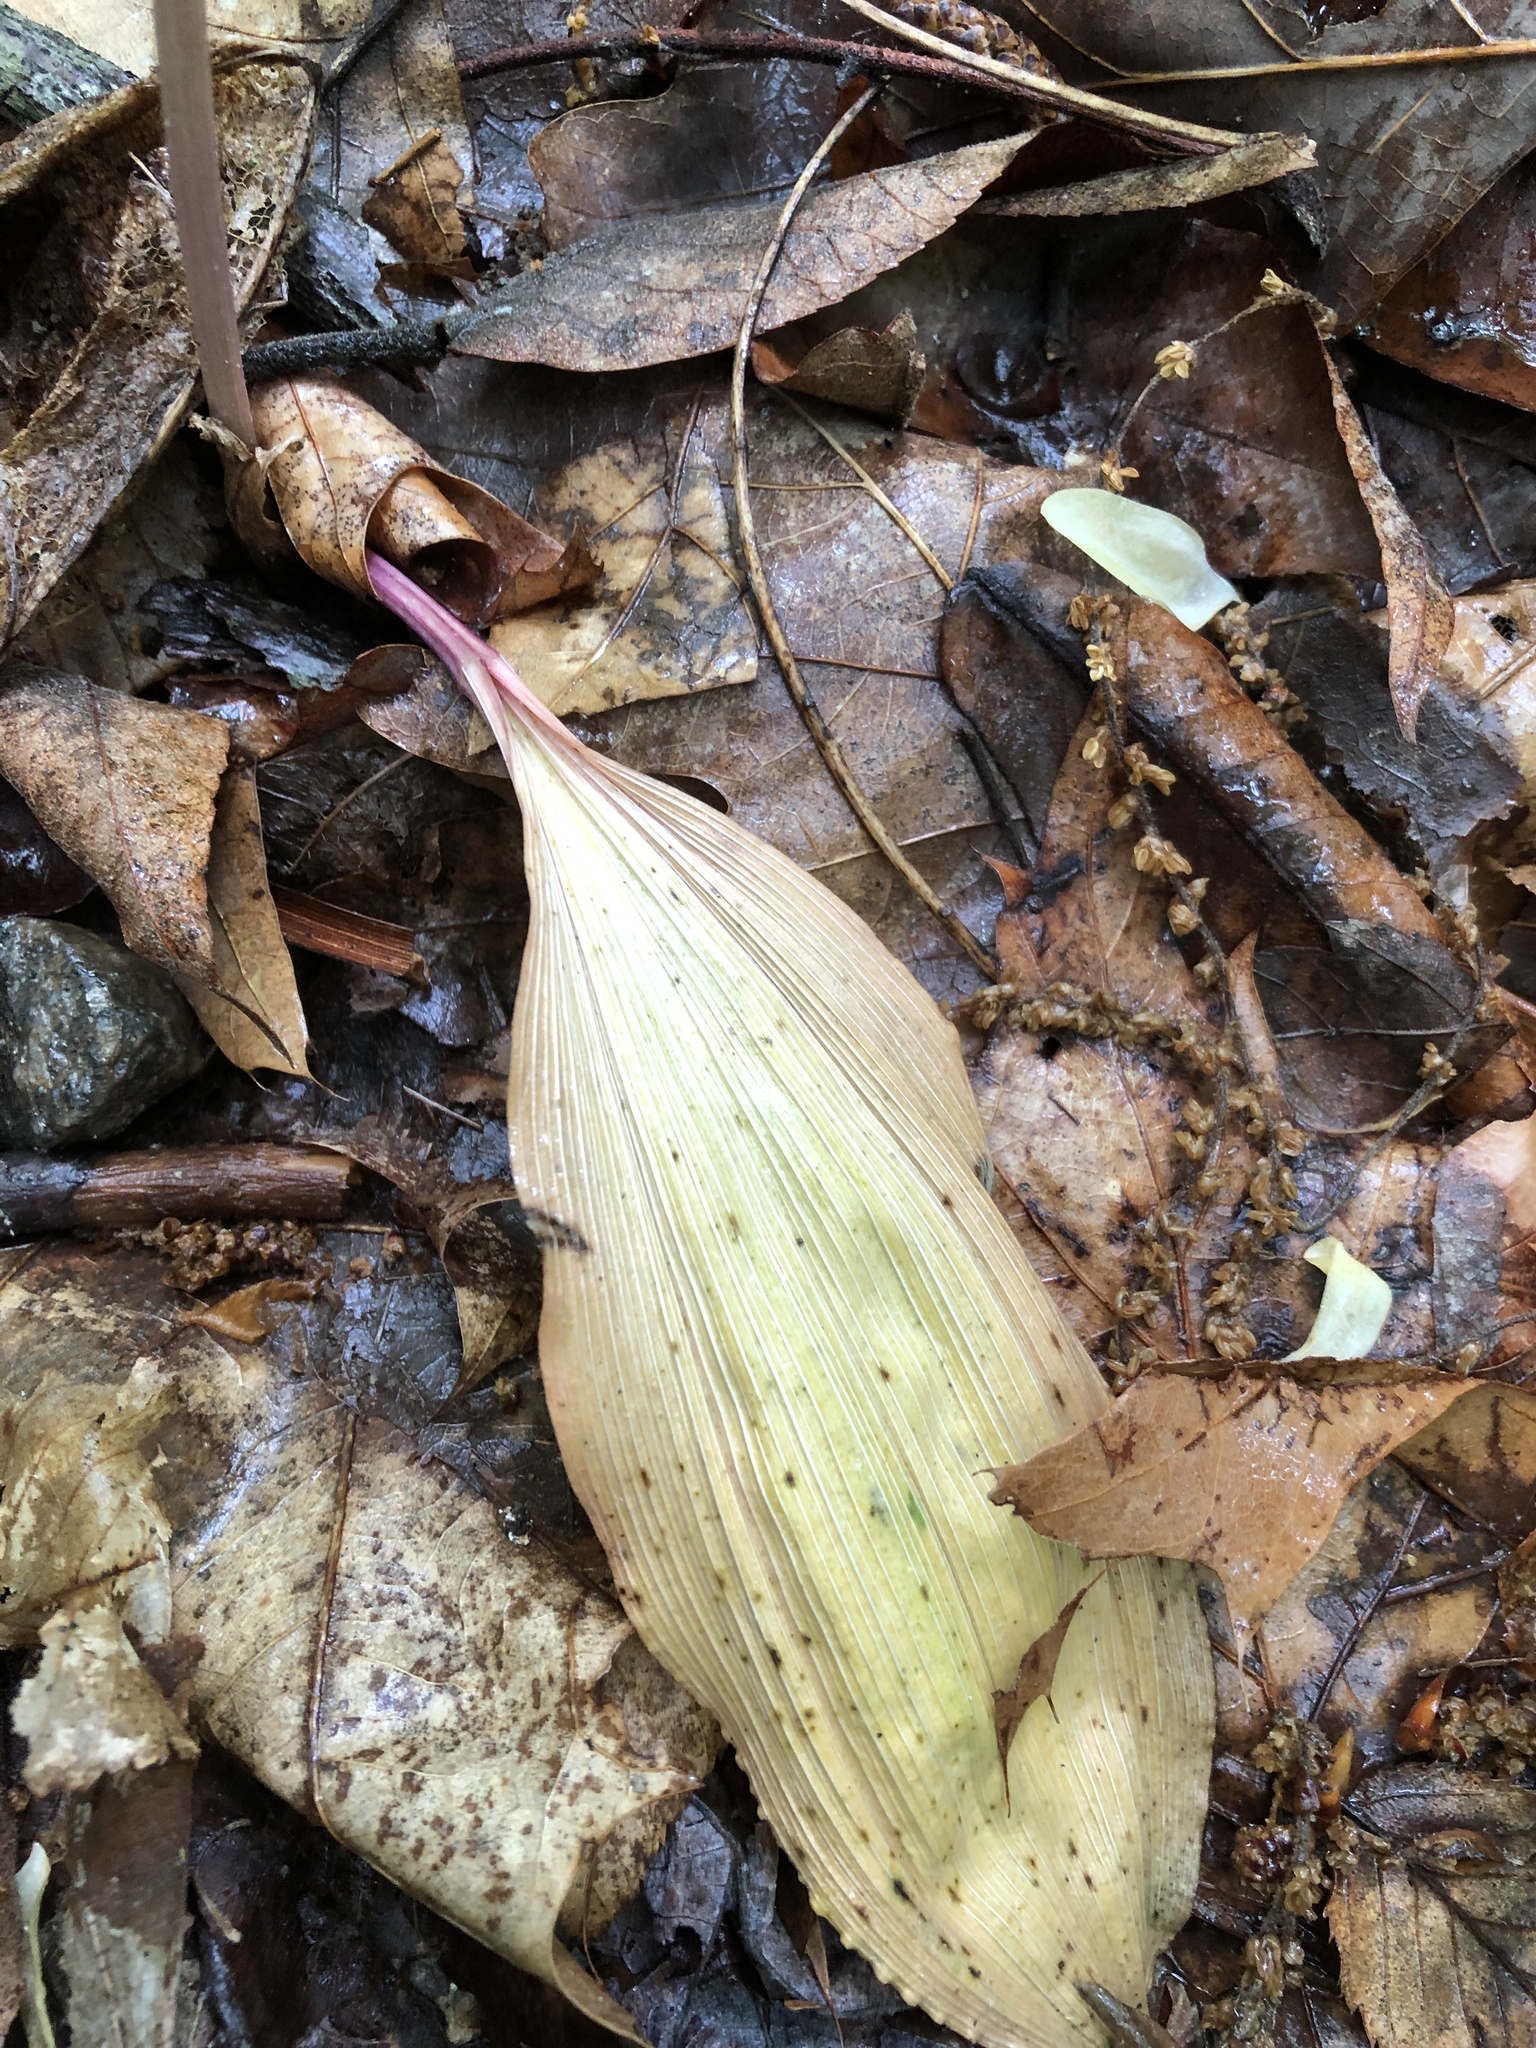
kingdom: Plantae
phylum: Tracheophyta
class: Liliopsida
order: Asparagales
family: Orchidaceae
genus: Aplectrum
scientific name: Aplectrum hyemale
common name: Adam-and-eve
